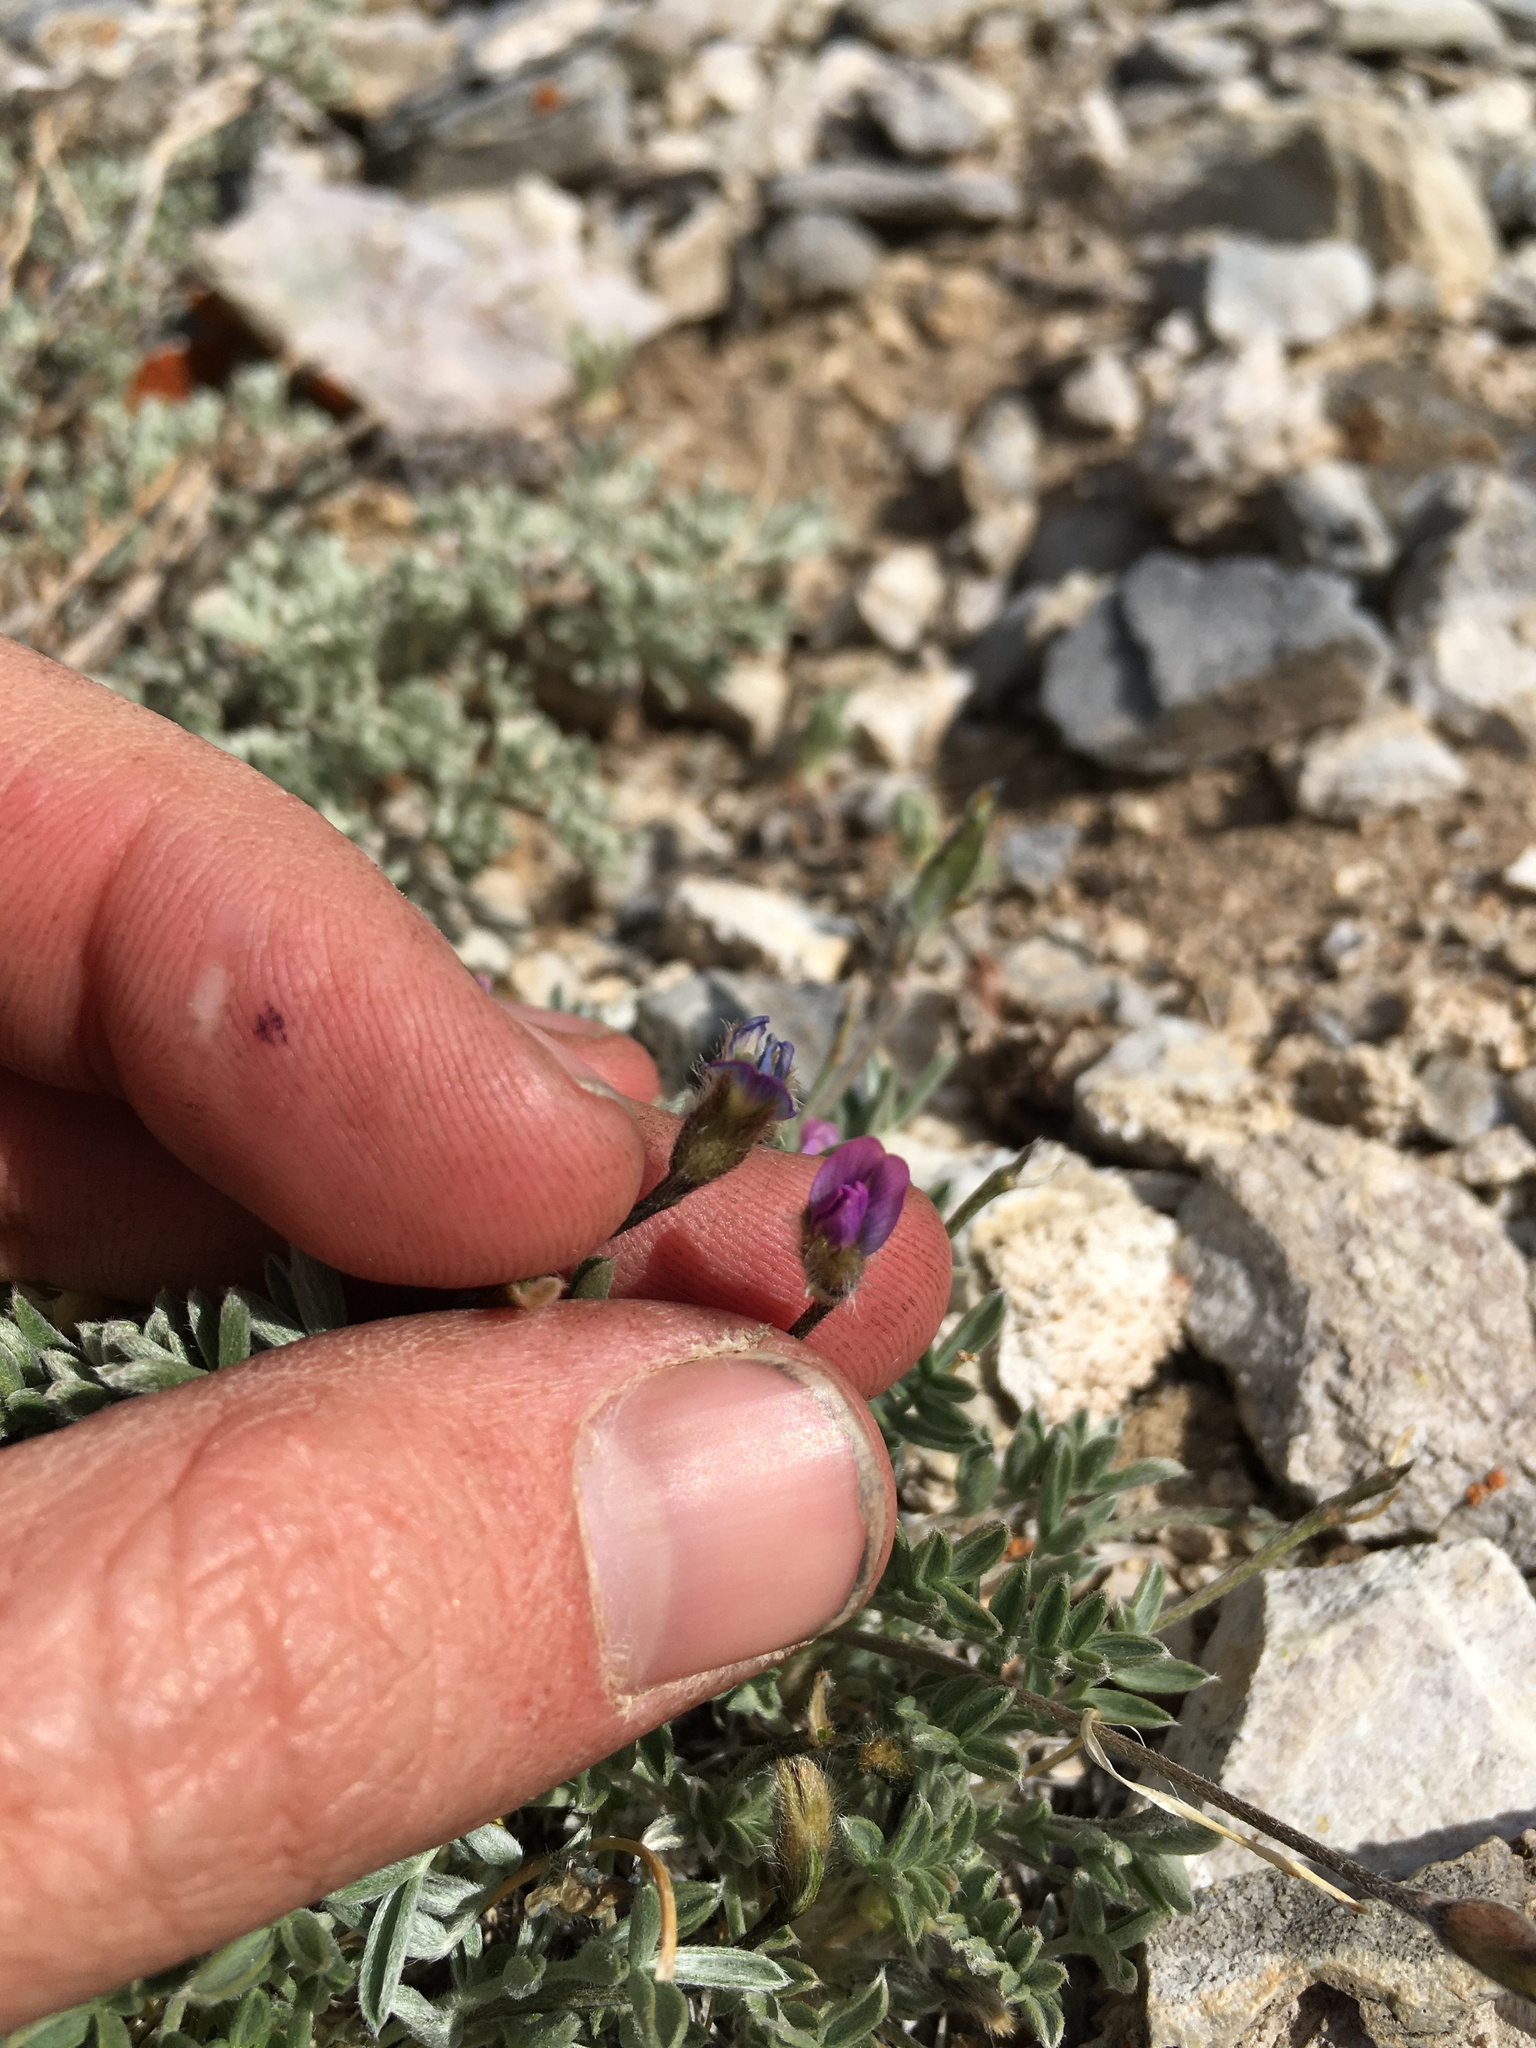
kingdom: Plantae
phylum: Tracheophyta
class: Magnoliopsida
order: Fabales
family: Fabaceae
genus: Oxytropis
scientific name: Oxytropis parryi
